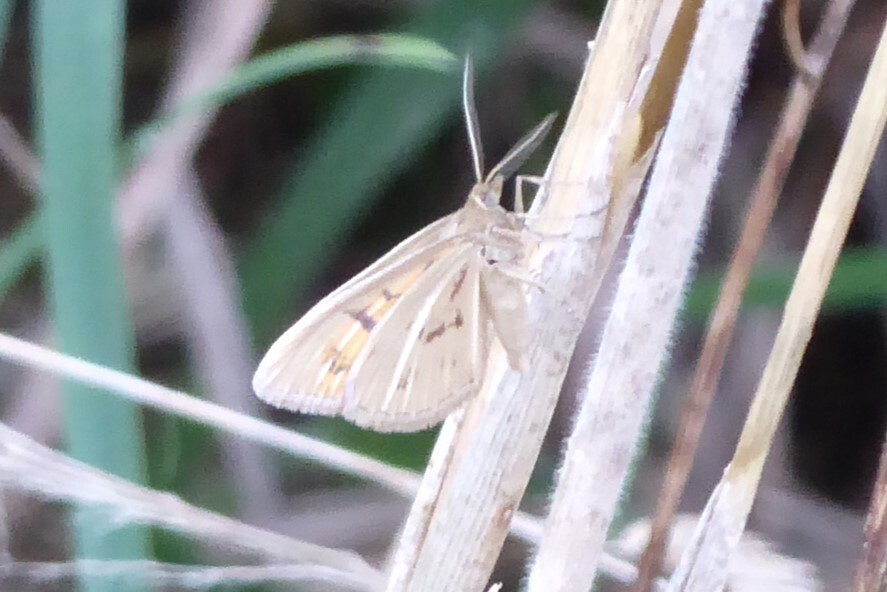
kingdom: Animalia
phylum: Arthropoda
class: Insecta
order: Lepidoptera
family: Geometridae
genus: Asaphodes
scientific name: Asaphodes abrogata
